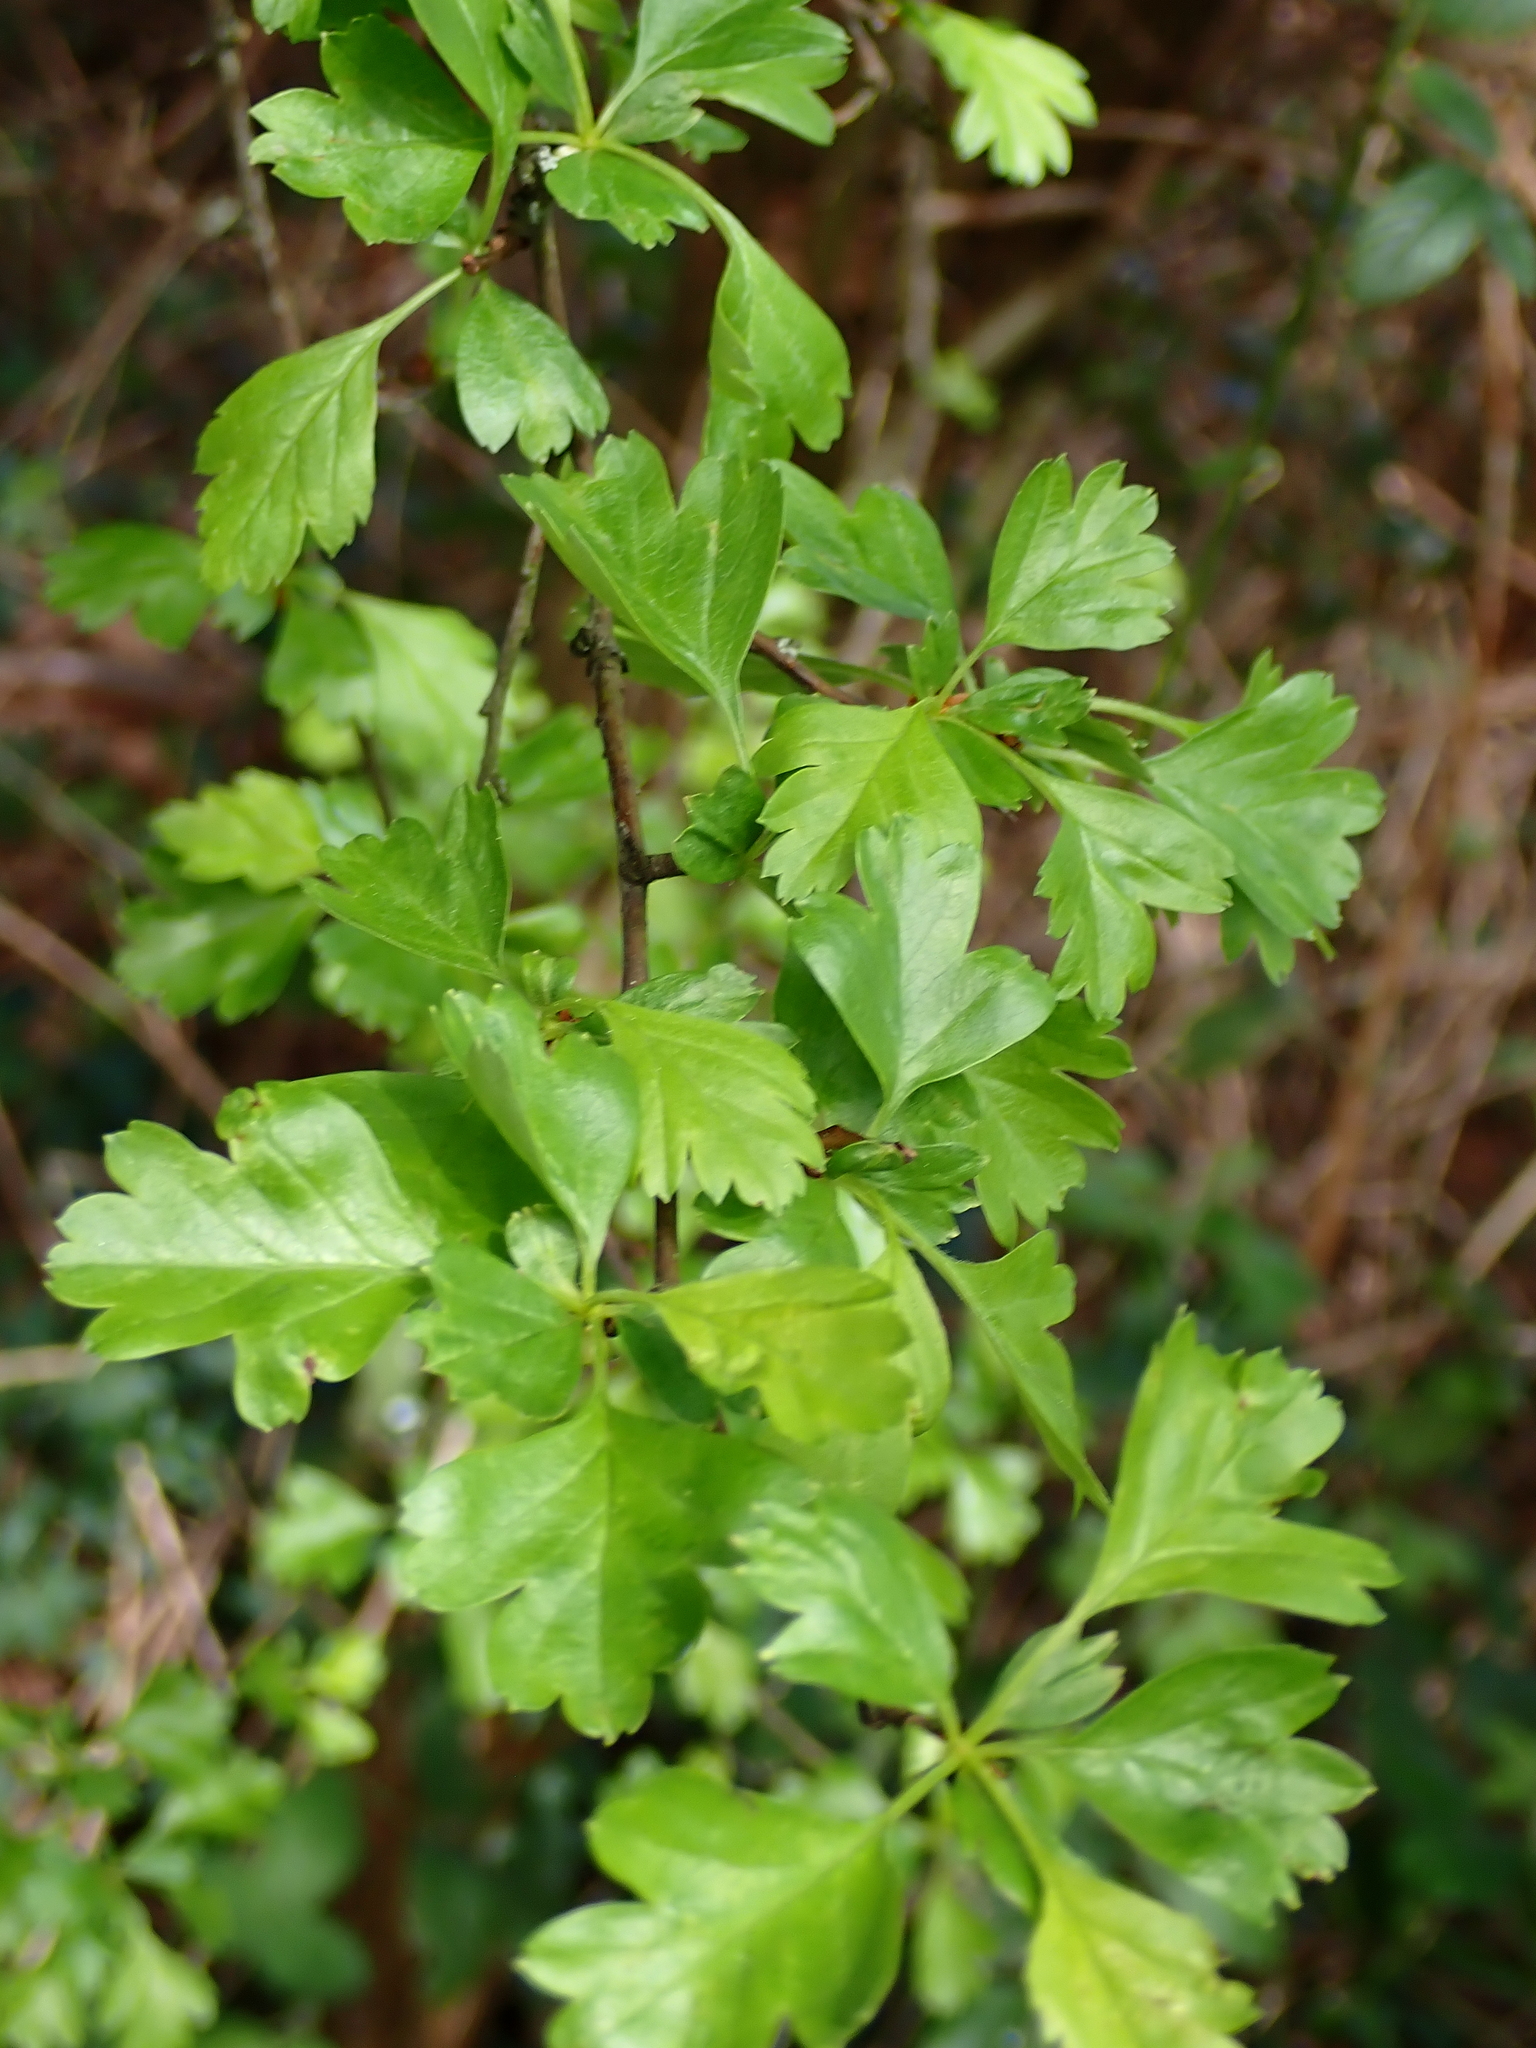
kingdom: Plantae
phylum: Tracheophyta
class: Magnoliopsida
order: Rosales
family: Rosaceae
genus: Crataegus
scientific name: Crataegus monogyna
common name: Hawthorn
